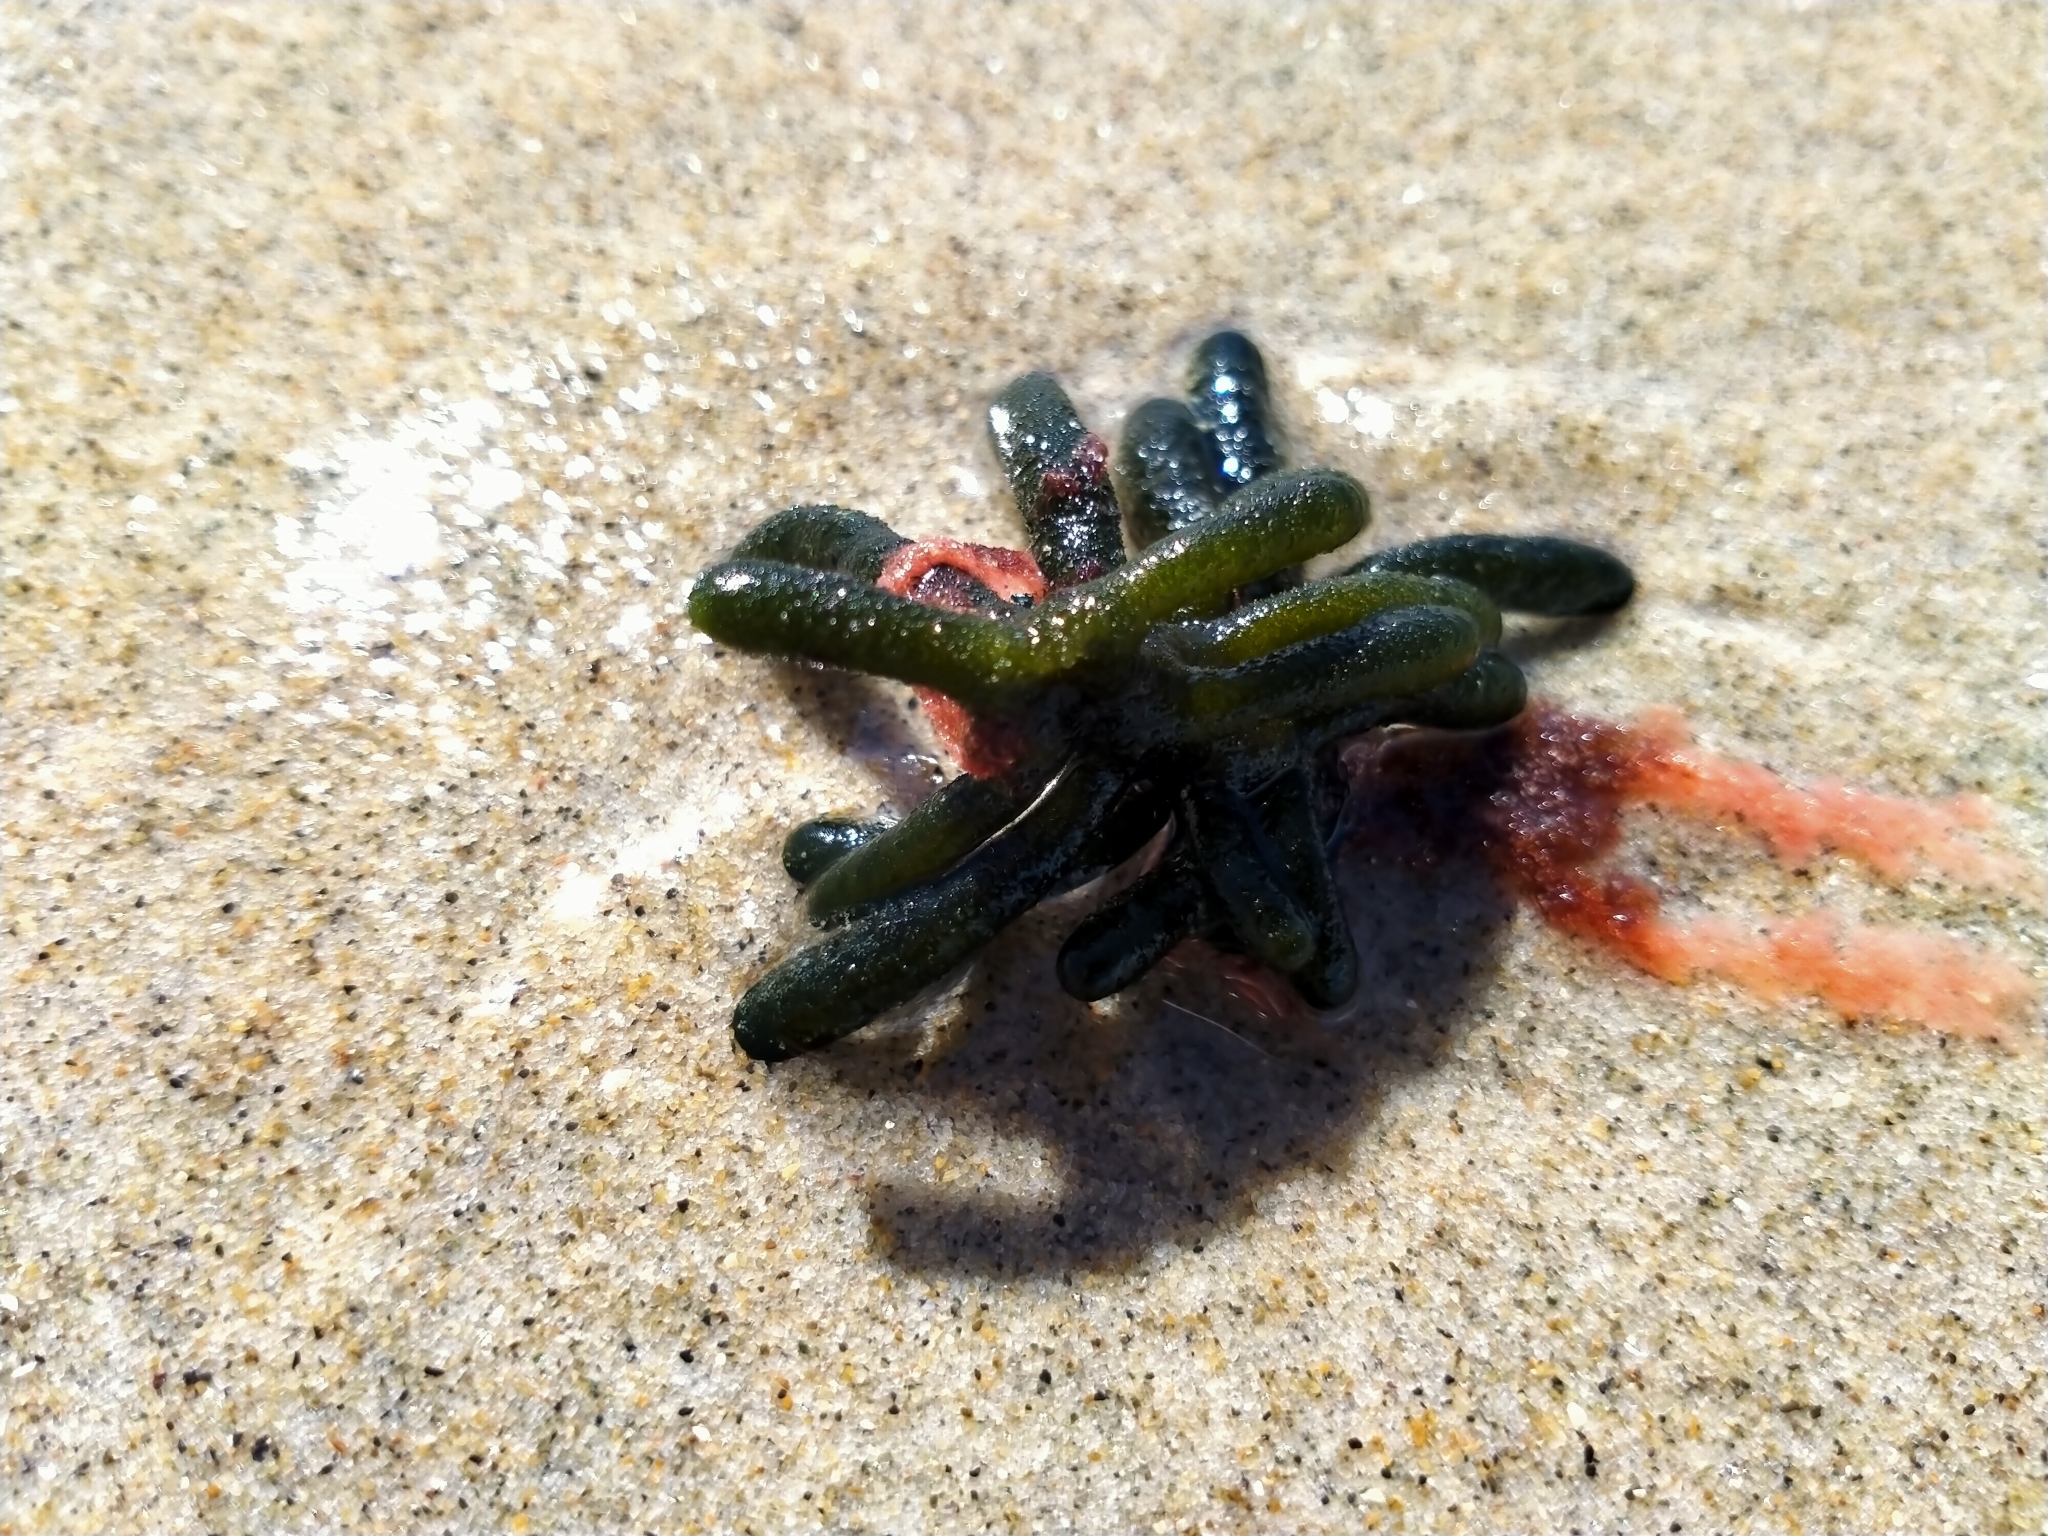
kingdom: Plantae
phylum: Chlorophyta
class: Ulvophyceae
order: Bryopsidales
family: Codiaceae
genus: Codium
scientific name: Codium fragile
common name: Dead man's fingers
